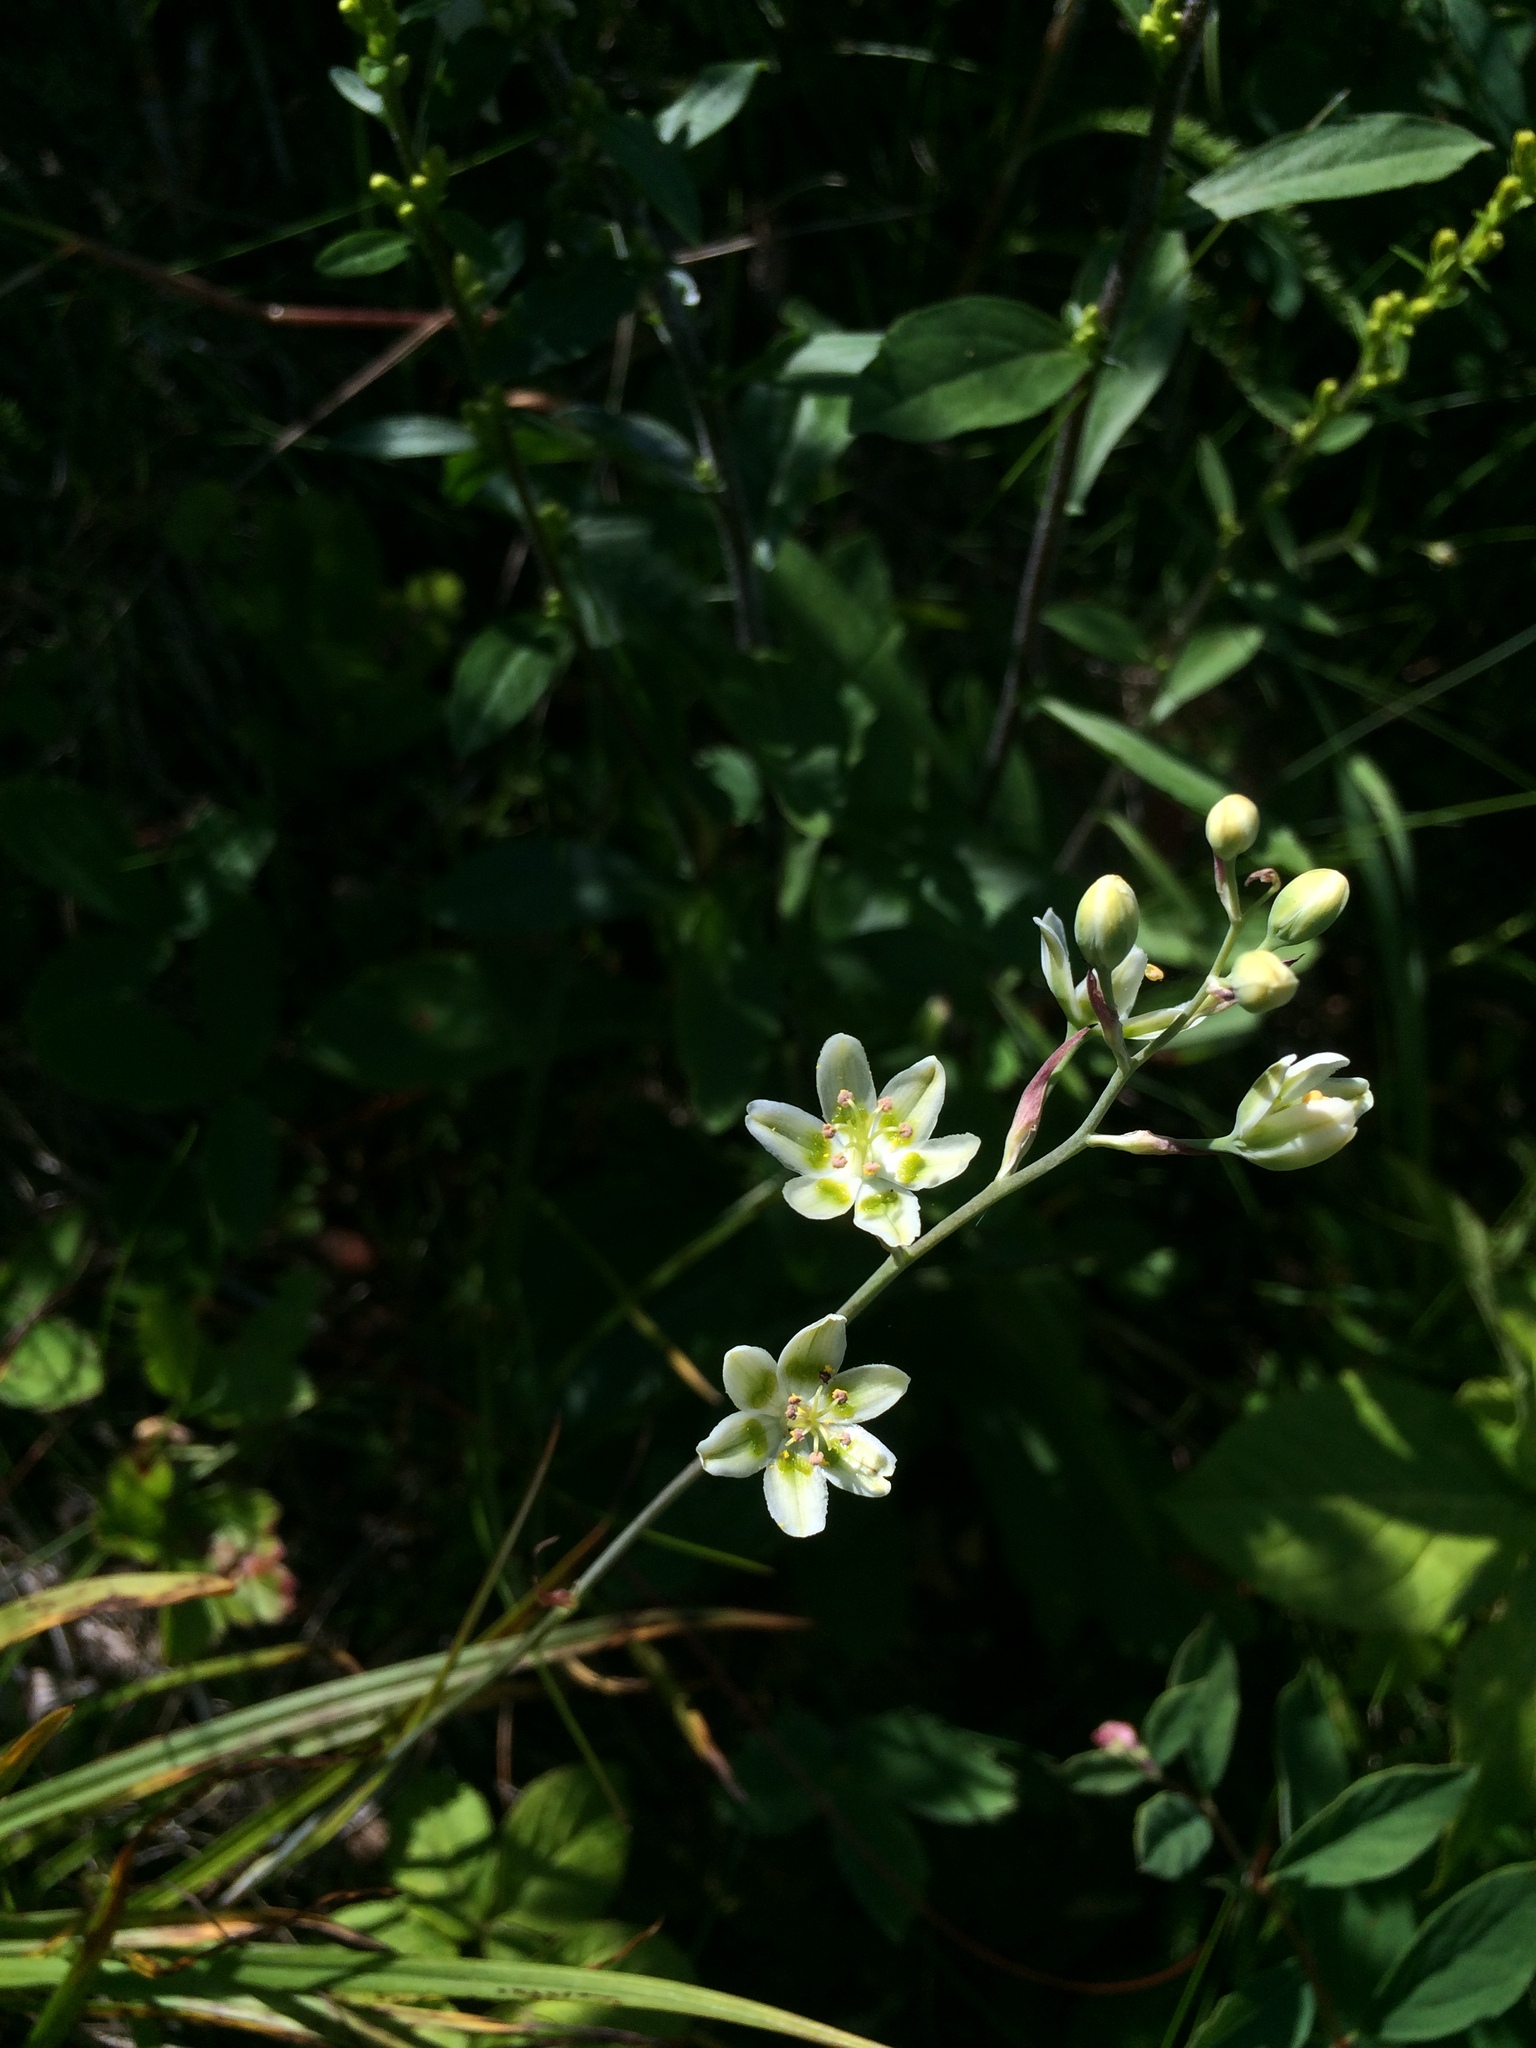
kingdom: Plantae
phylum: Tracheophyta
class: Liliopsida
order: Liliales
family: Melanthiaceae
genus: Anticlea
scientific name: Anticlea elegans
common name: Mountain death camas
